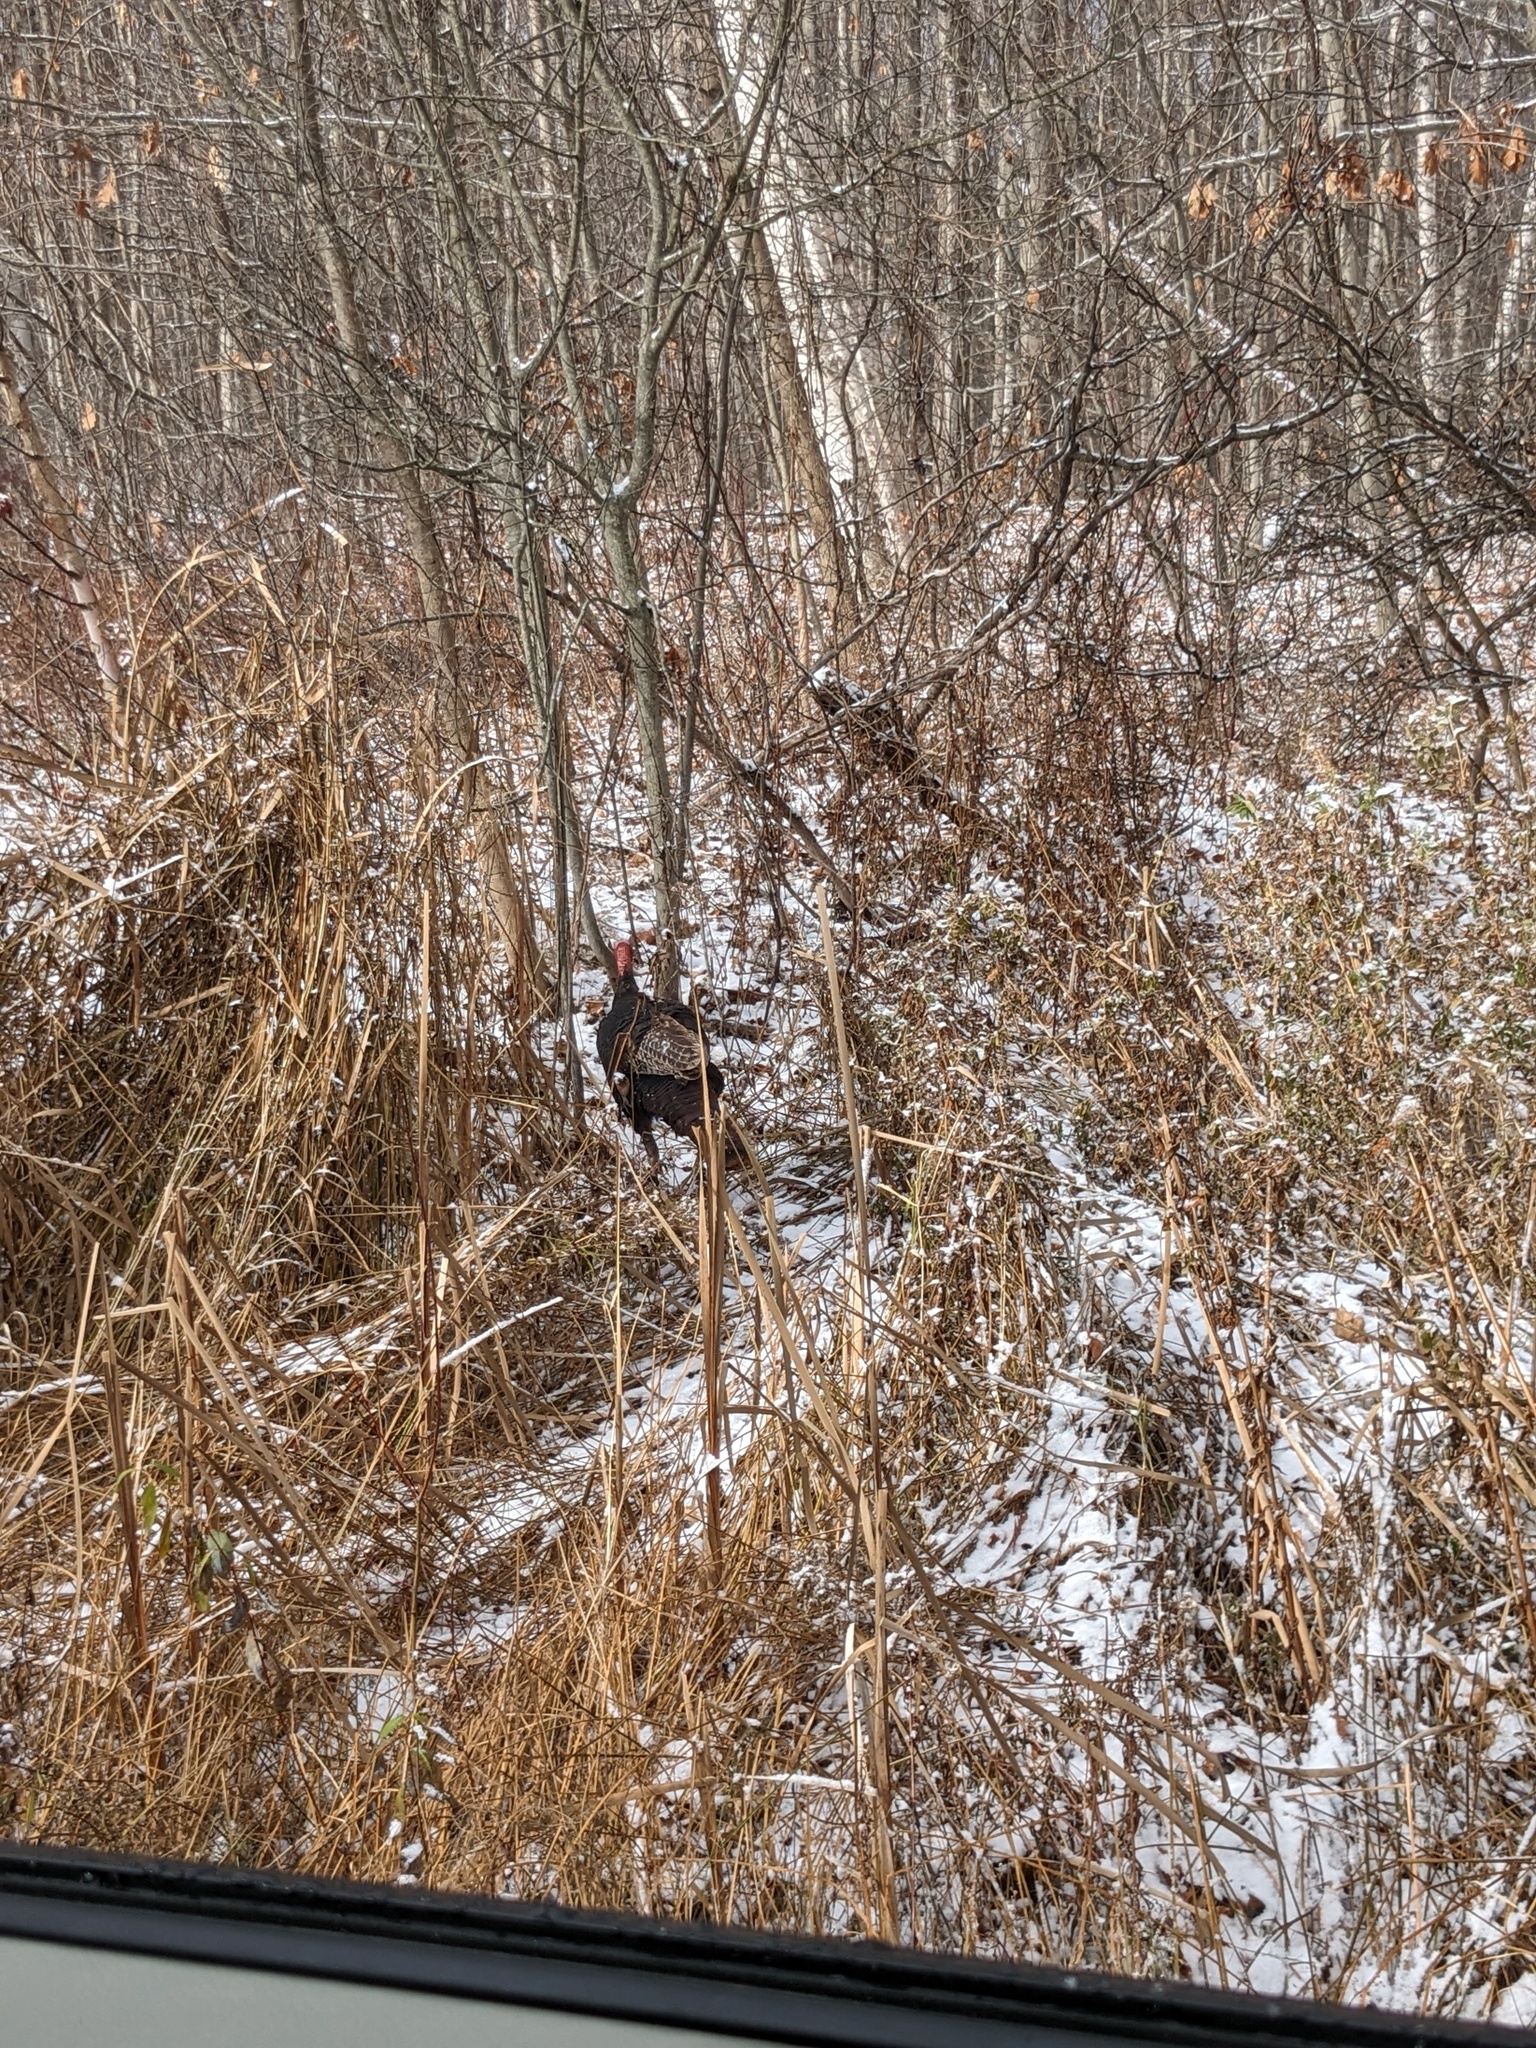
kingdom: Animalia
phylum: Chordata
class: Aves
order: Galliformes
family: Phasianidae
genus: Meleagris
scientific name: Meleagris gallopavo
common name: Wild turkey
